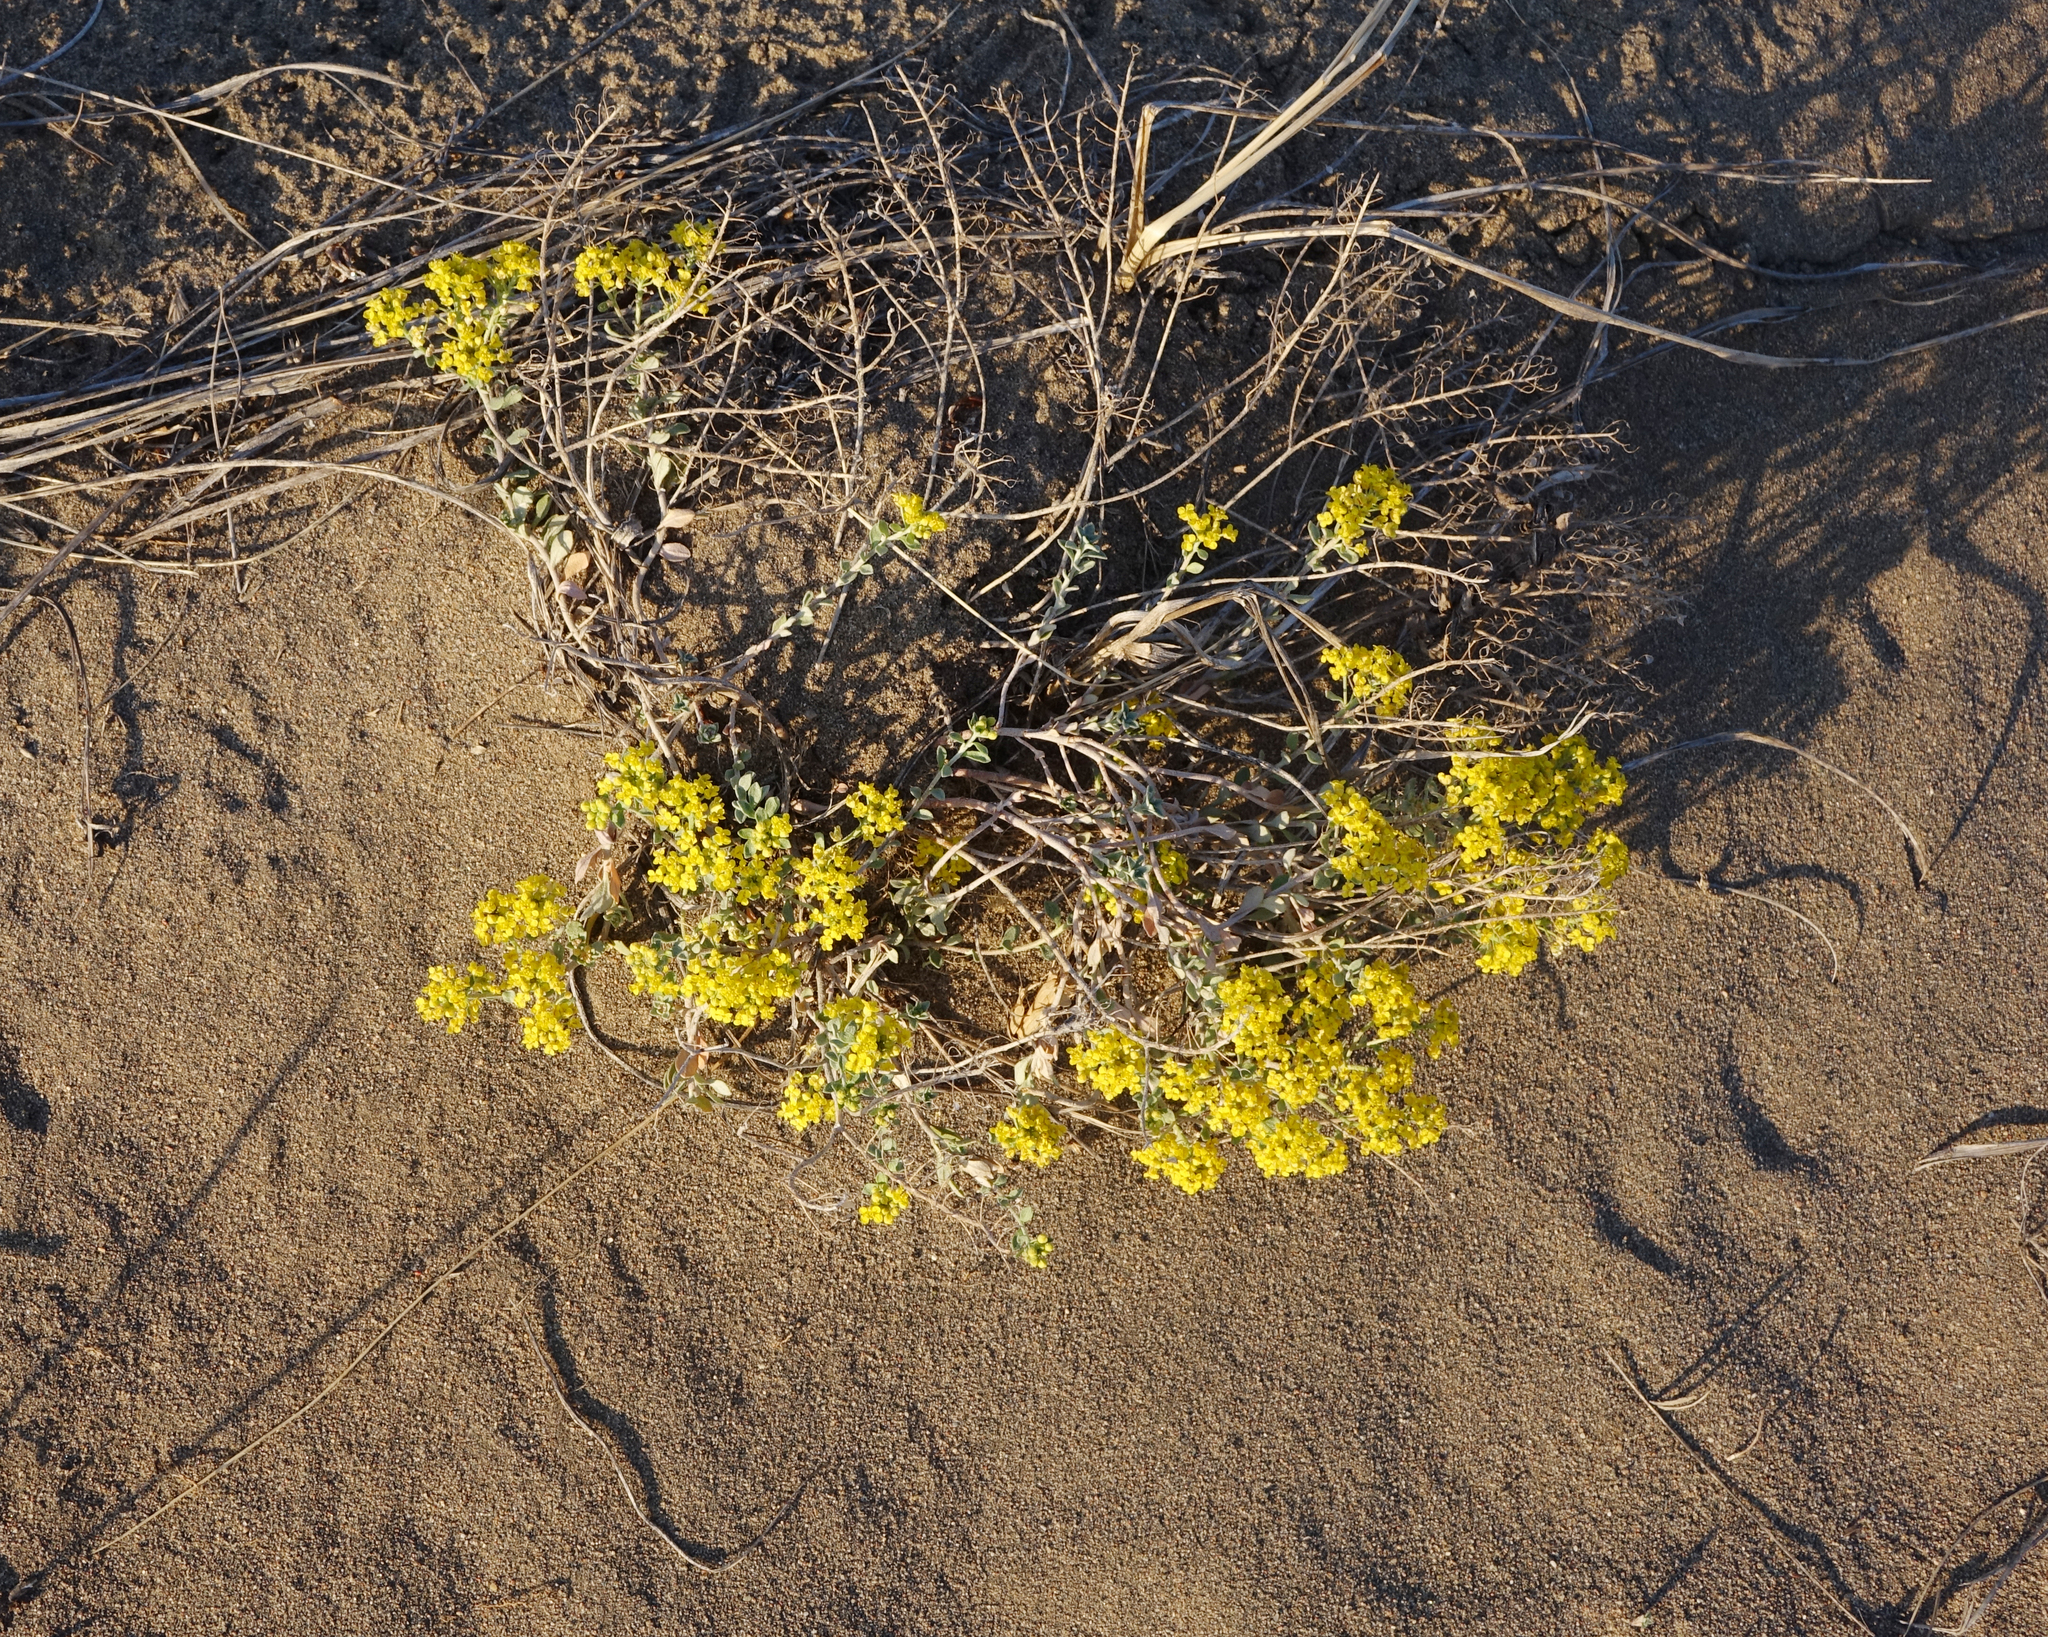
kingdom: Plantae
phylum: Tracheophyta
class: Magnoliopsida
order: Brassicales
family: Brassicaceae
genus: Odontarrhena
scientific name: Odontarrhena obovata
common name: American alyssum
